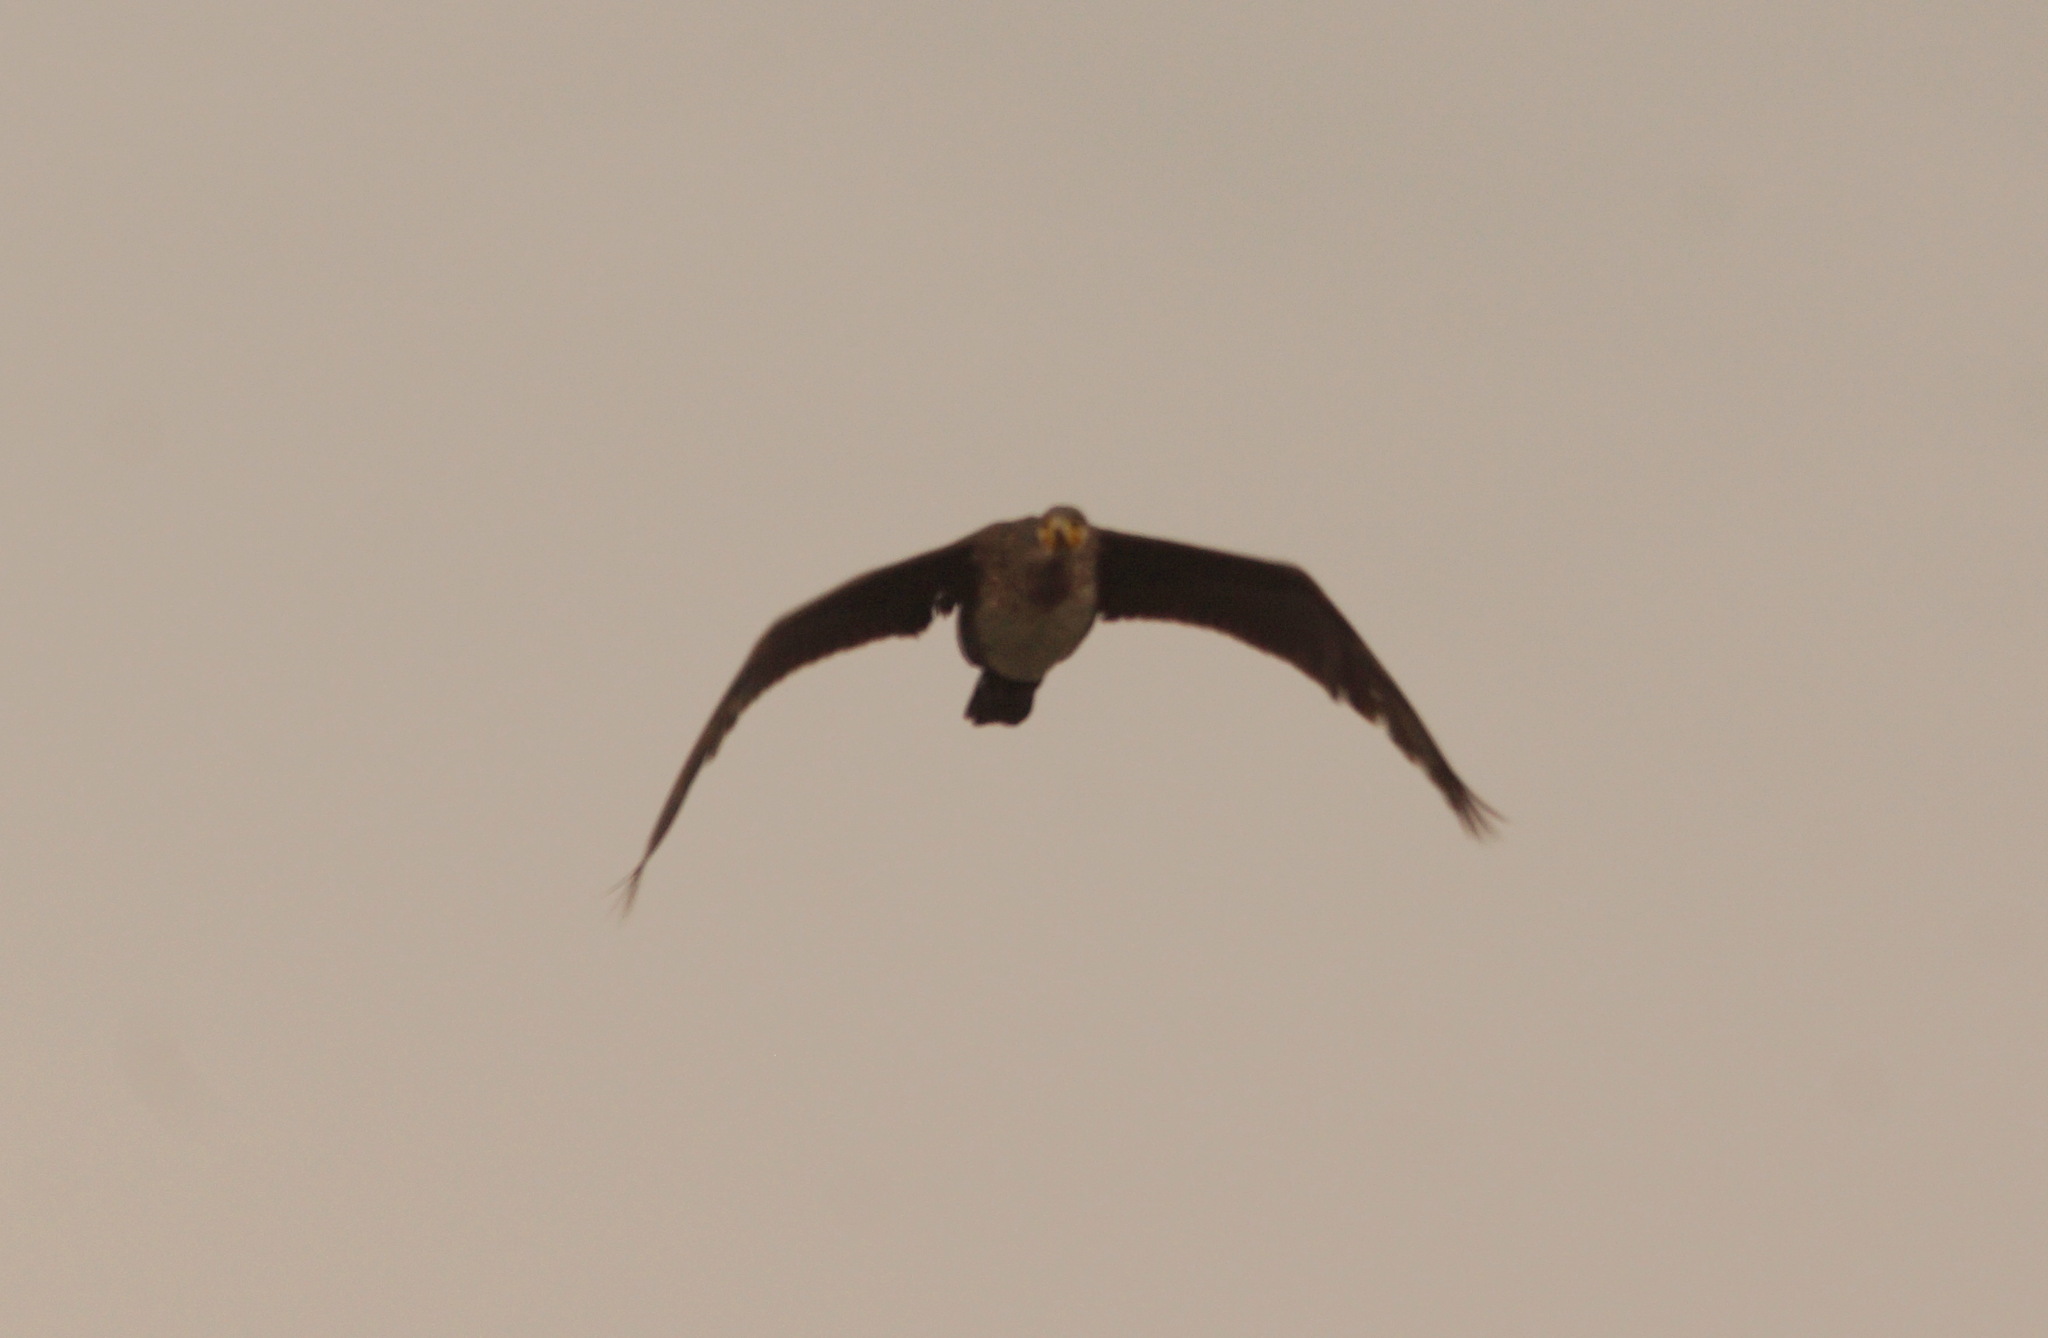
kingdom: Animalia
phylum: Chordata
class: Aves
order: Suliformes
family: Phalacrocoracidae
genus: Phalacrocorax
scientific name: Phalacrocorax carbo
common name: Great cormorant
